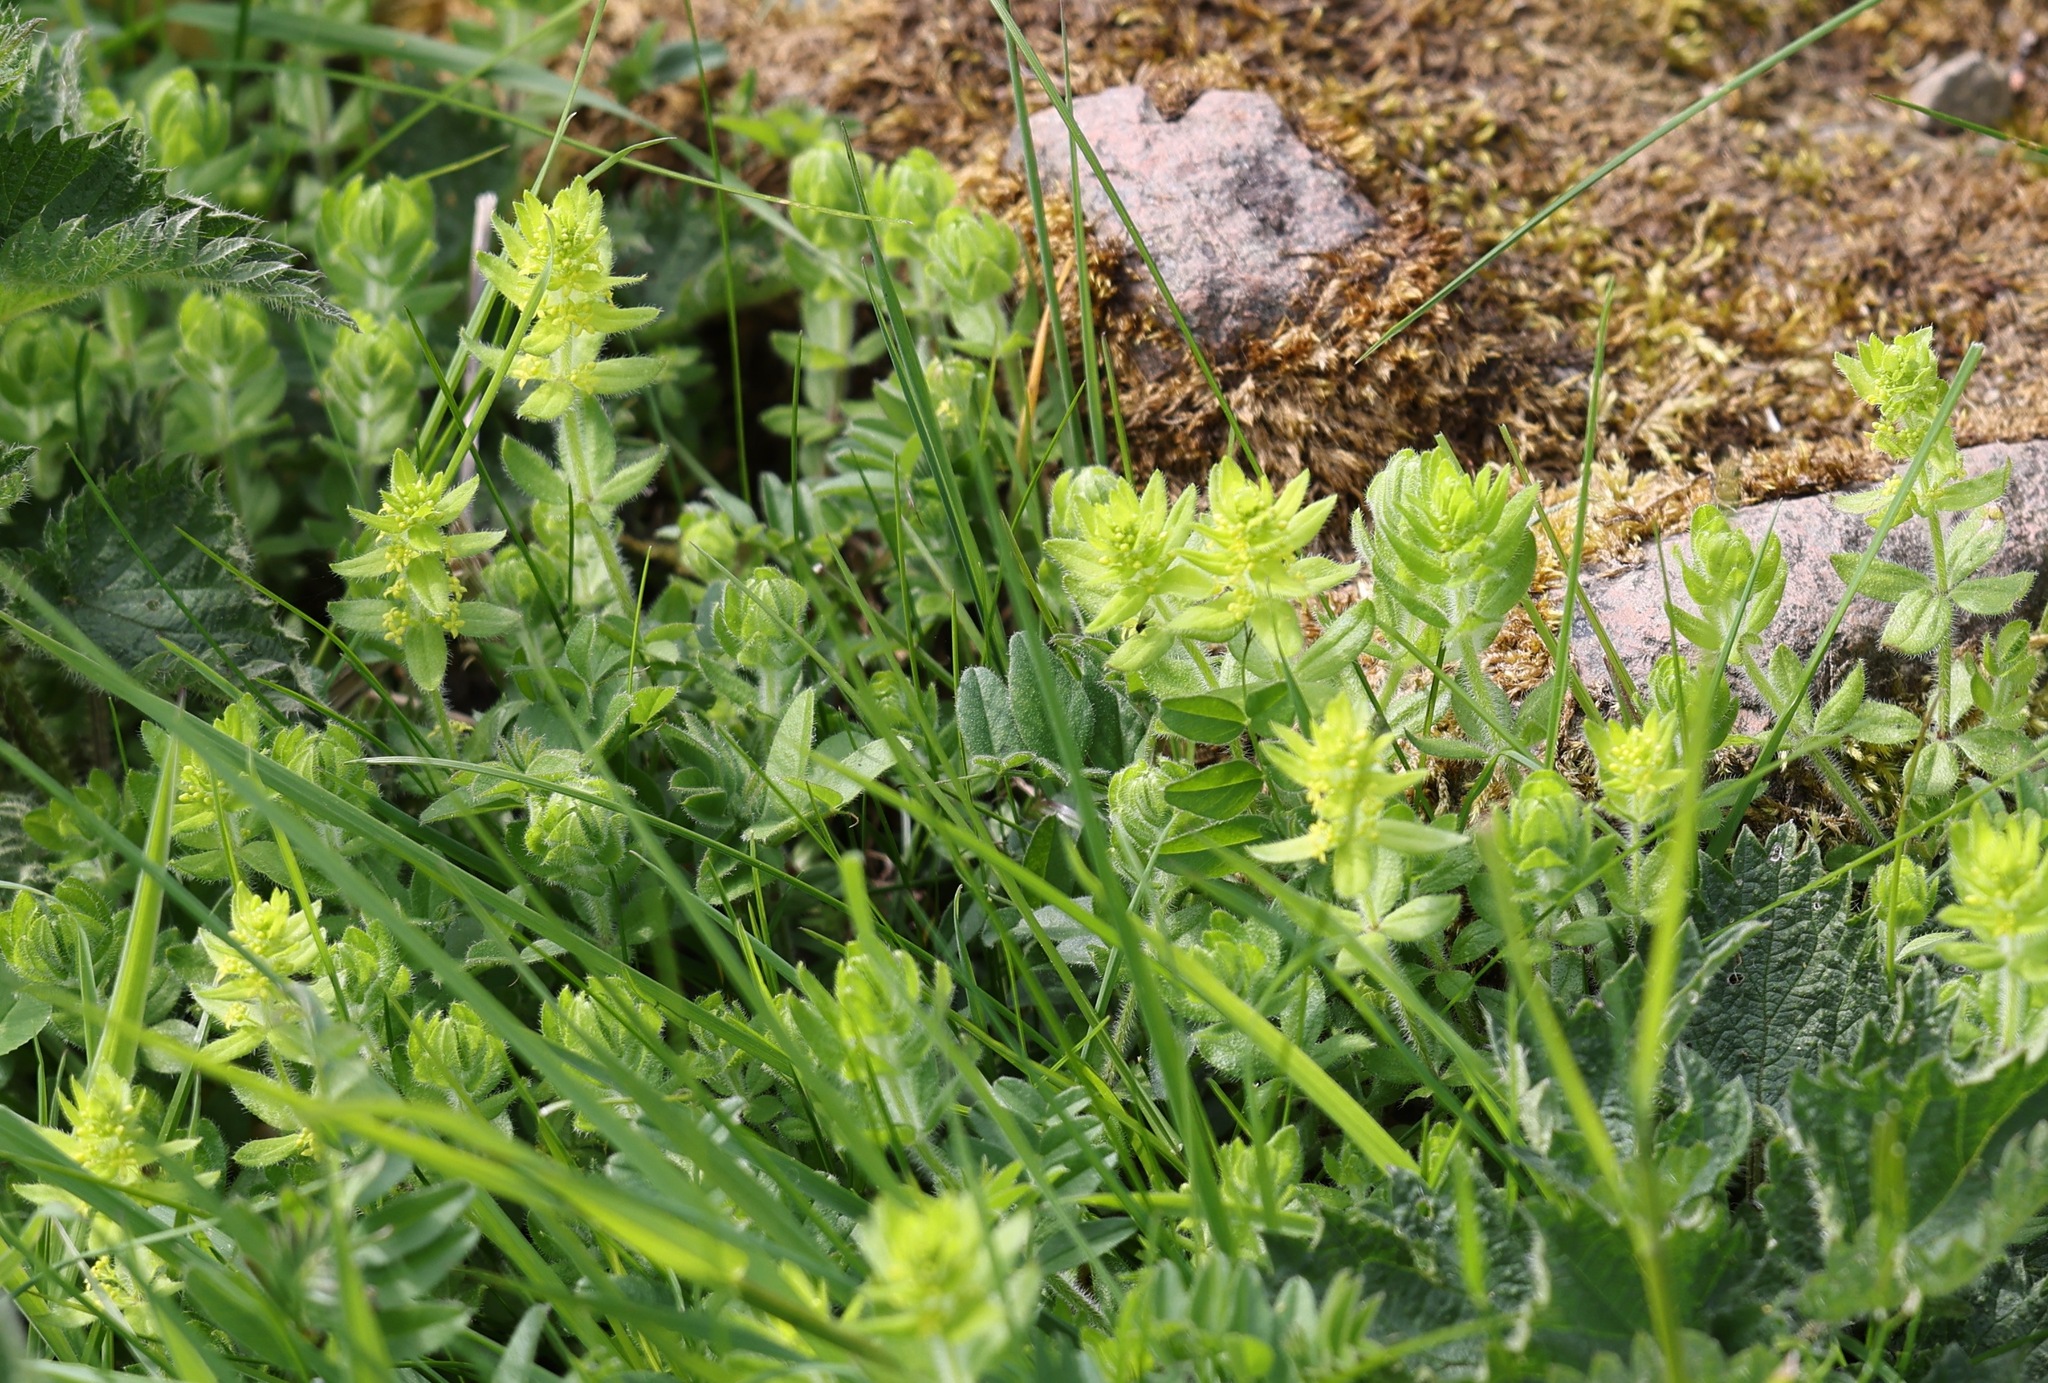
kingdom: Plantae
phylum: Tracheophyta
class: Magnoliopsida
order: Gentianales
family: Rubiaceae
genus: Cruciata
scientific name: Cruciata laevipes
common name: Crosswort
